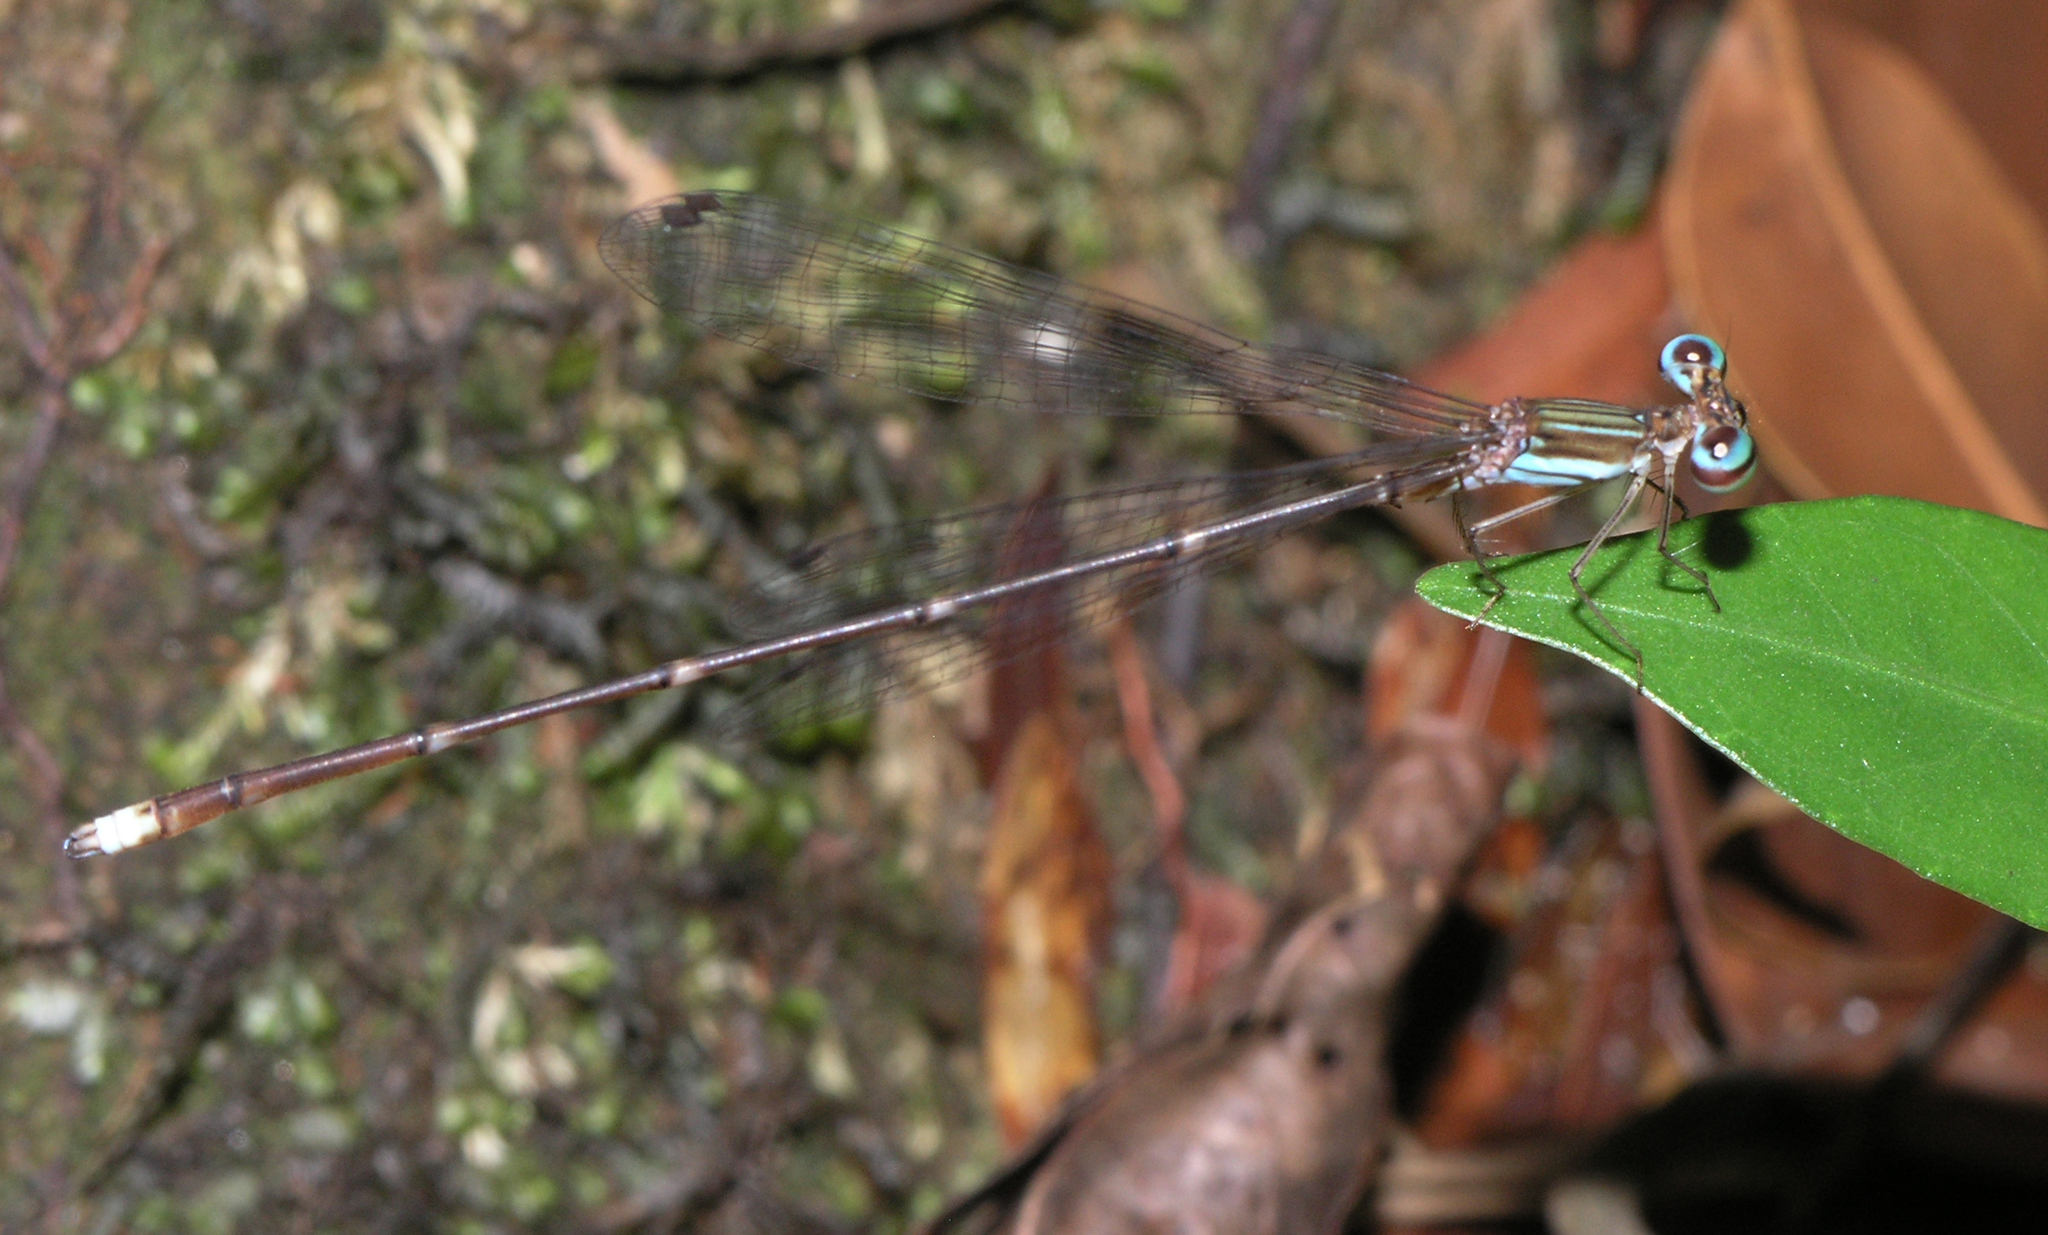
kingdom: Animalia
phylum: Arthropoda
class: Insecta
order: Odonata
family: Platycnemididae
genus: Coeliccia
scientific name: Coeliccia kazukoae
